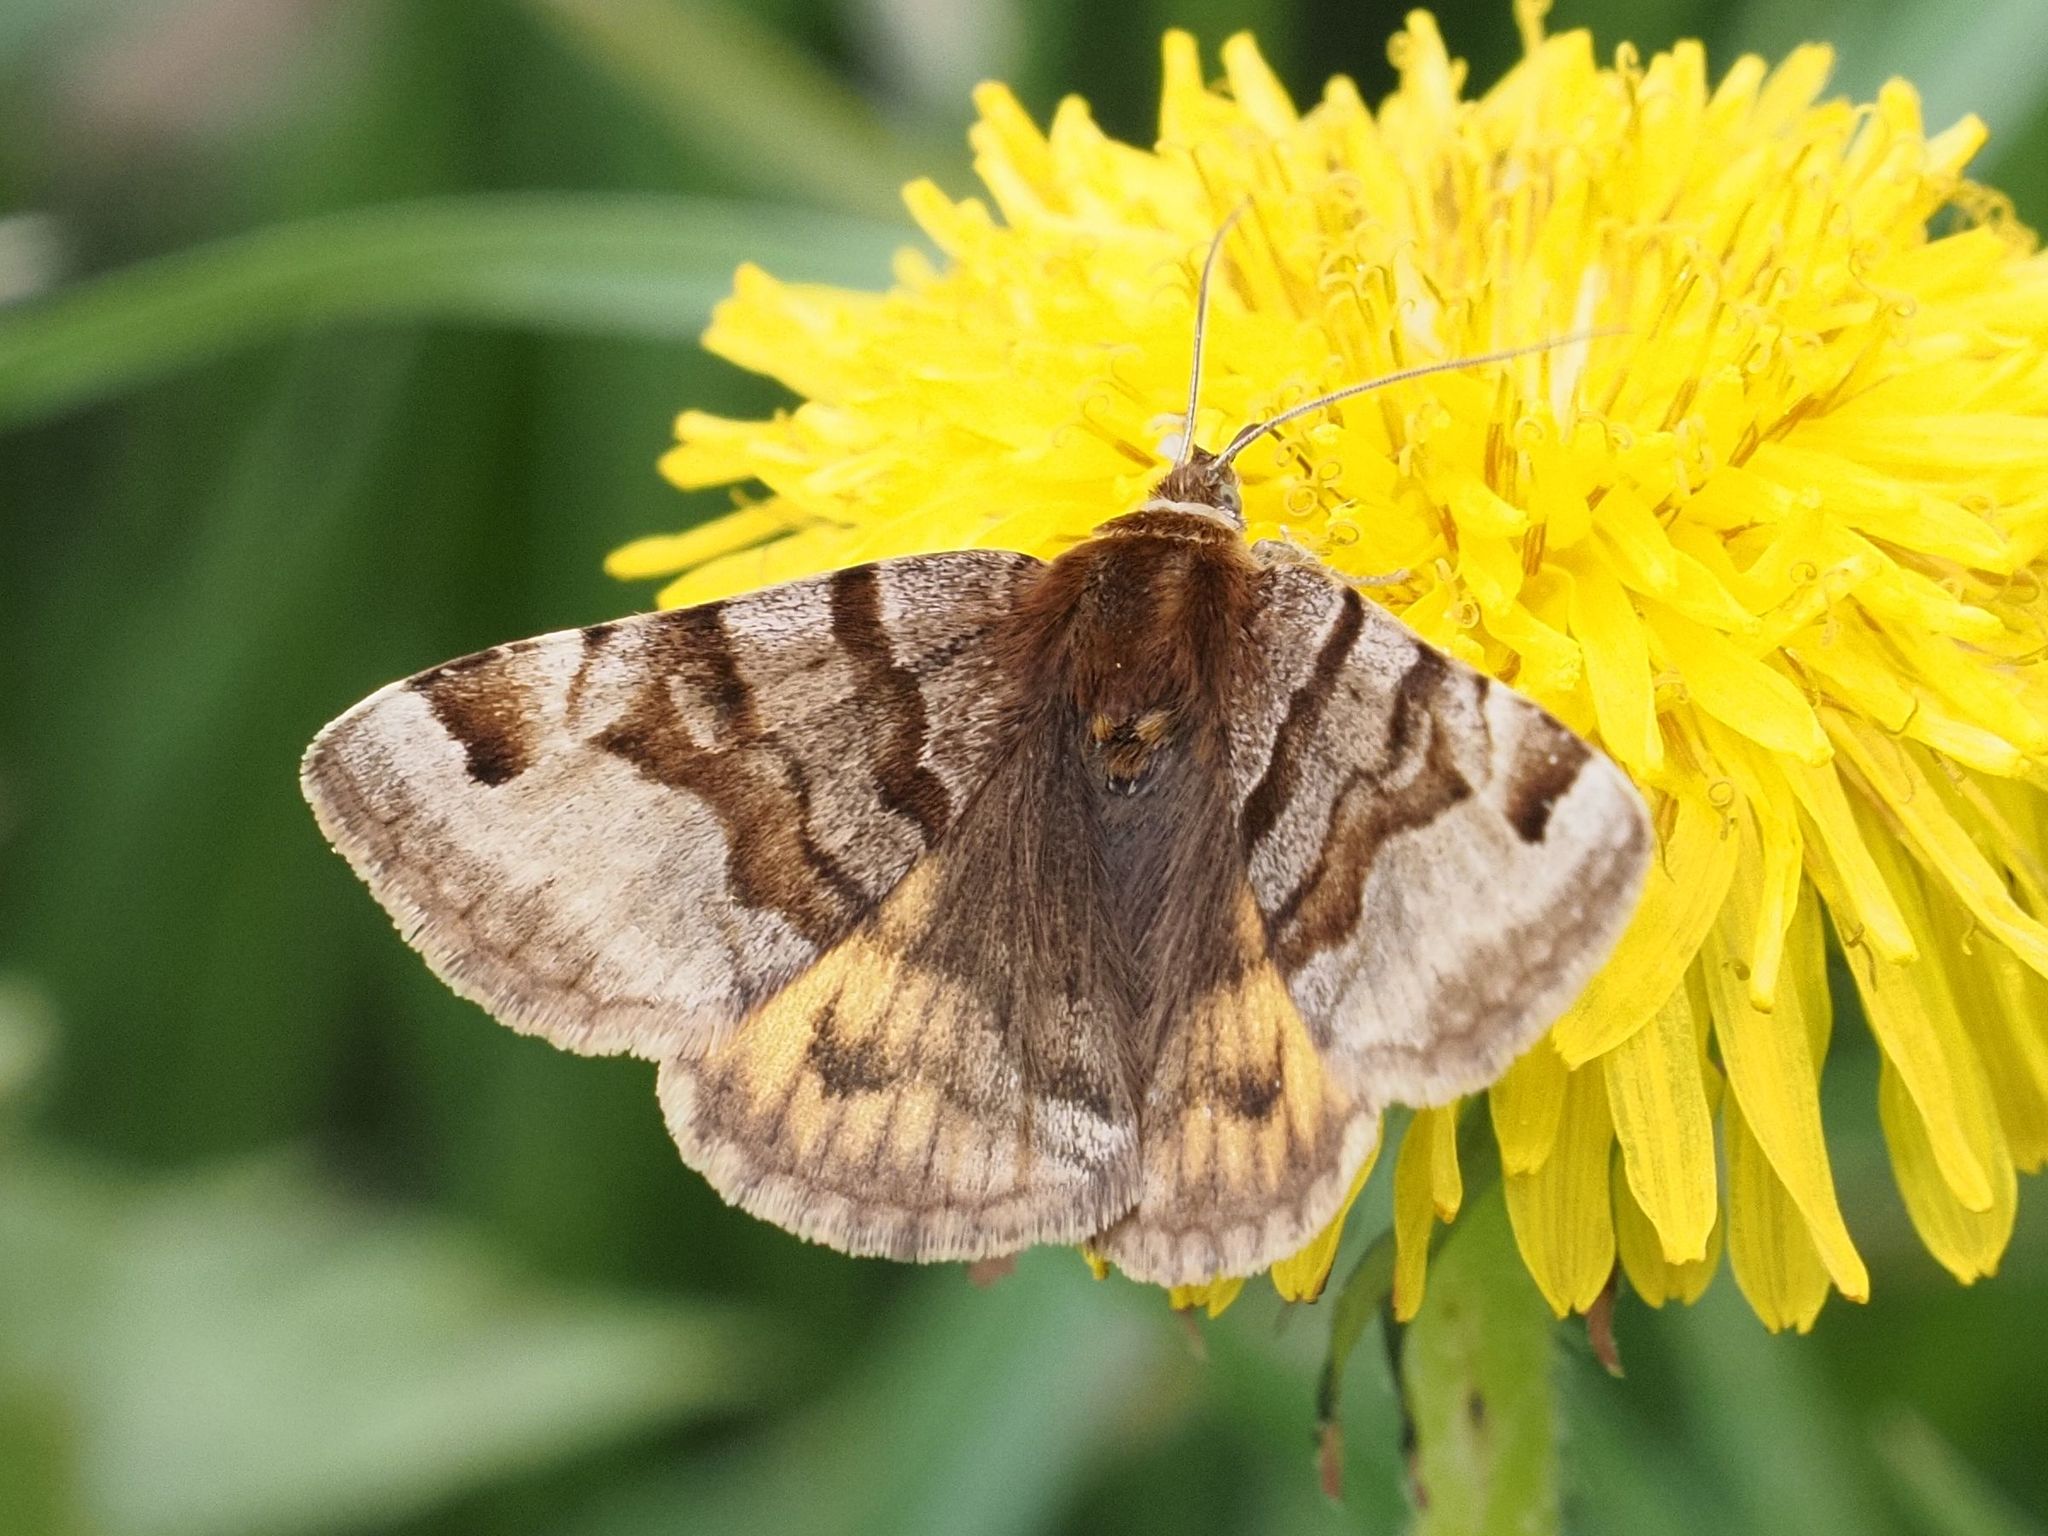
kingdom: Animalia
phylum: Arthropoda
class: Insecta
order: Lepidoptera
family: Erebidae
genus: Euclidia
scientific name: Euclidia glyphica
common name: Burnet companion
